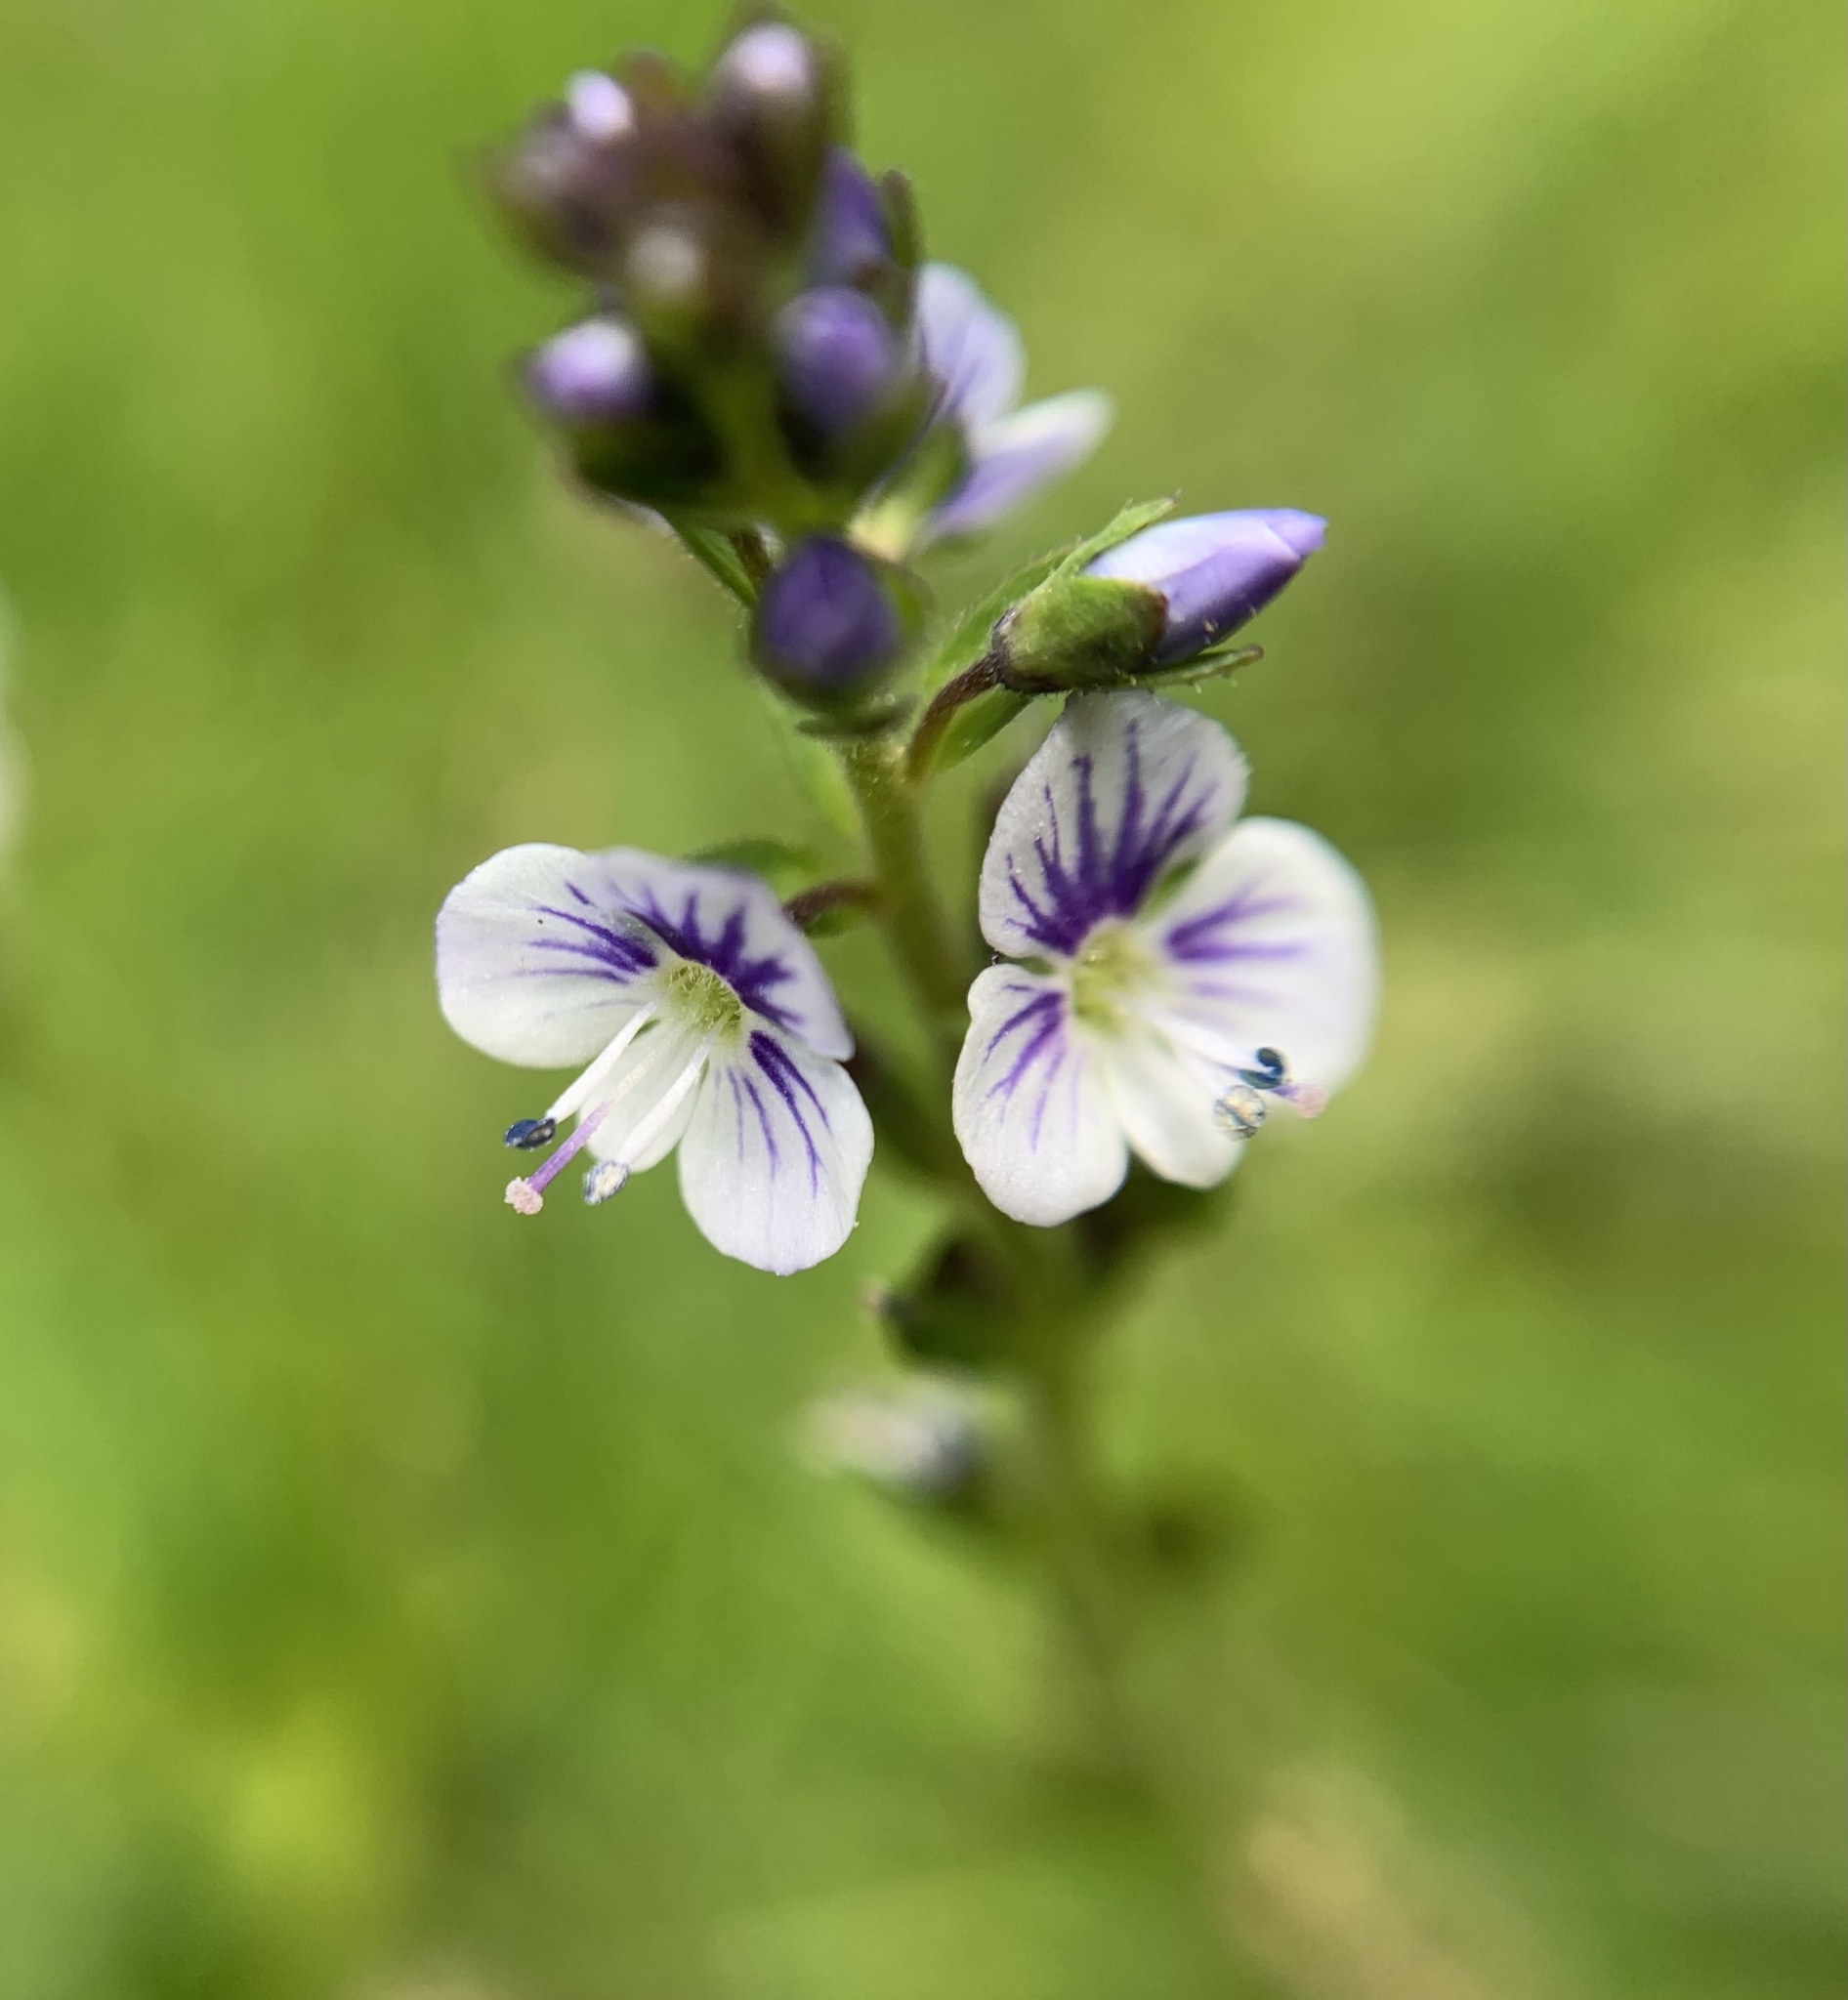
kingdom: Plantae
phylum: Tracheophyta
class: Magnoliopsida
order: Lamiales
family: Plantaginaceae
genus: Veronica
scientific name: Veronica serpyllifolia
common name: Thyme-leaved speedwell
